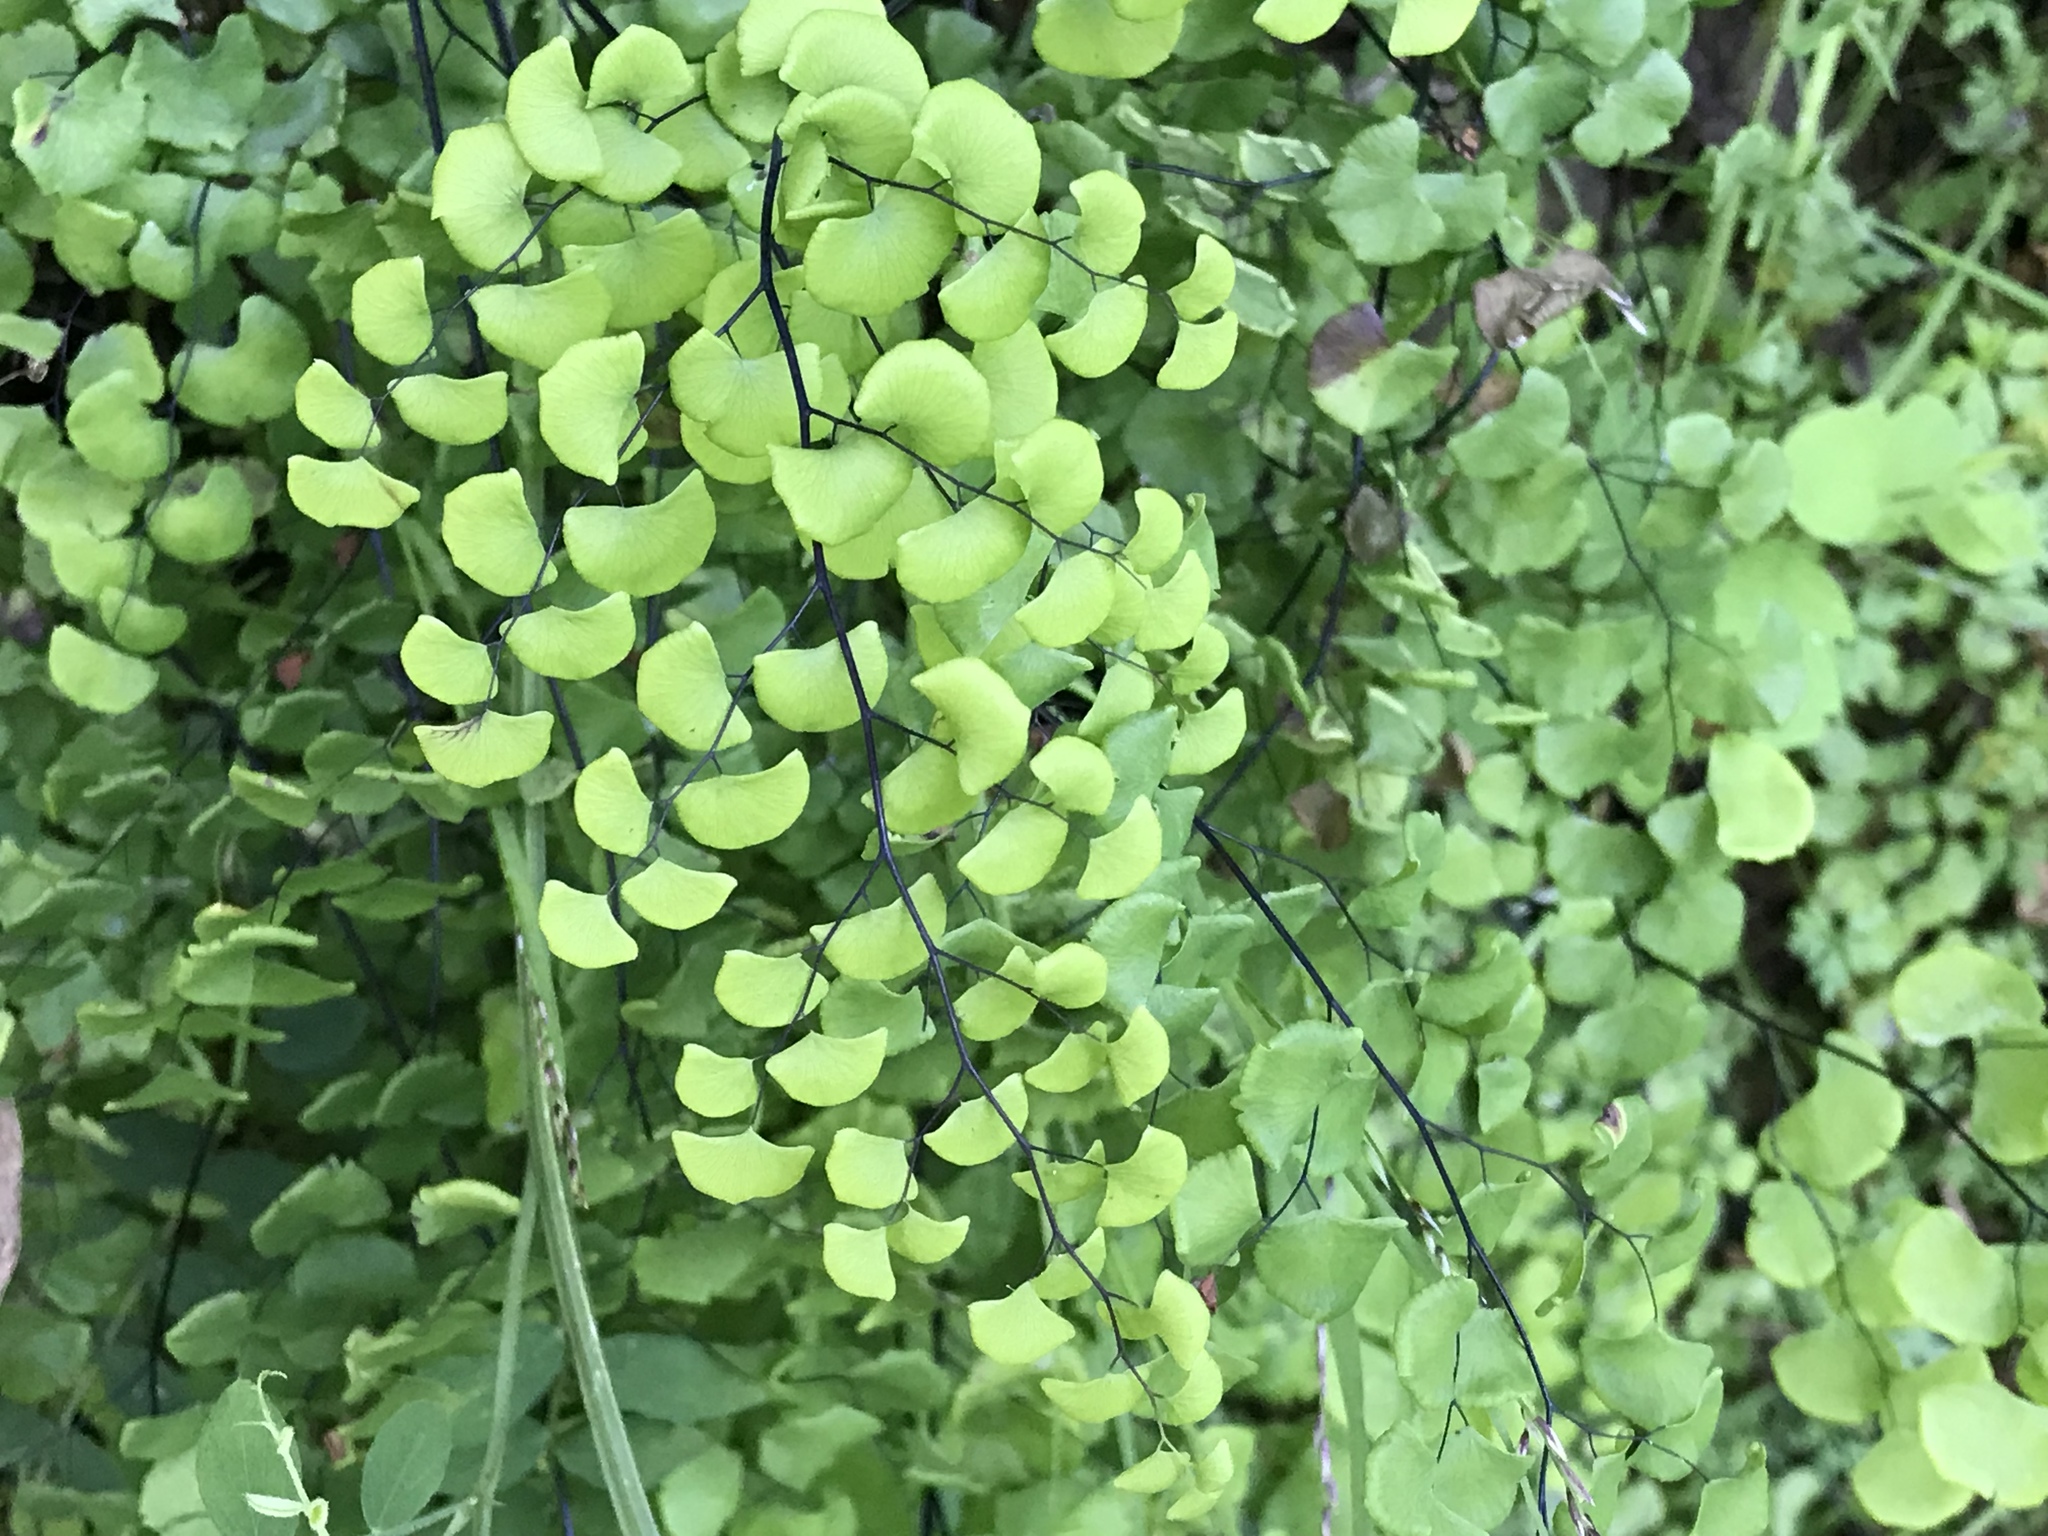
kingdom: Plantae
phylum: Tracheophyta
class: Polypodiopsida
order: Polypodiales
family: Pteridaceae
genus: Adiantum
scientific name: Adiantum jordanii
